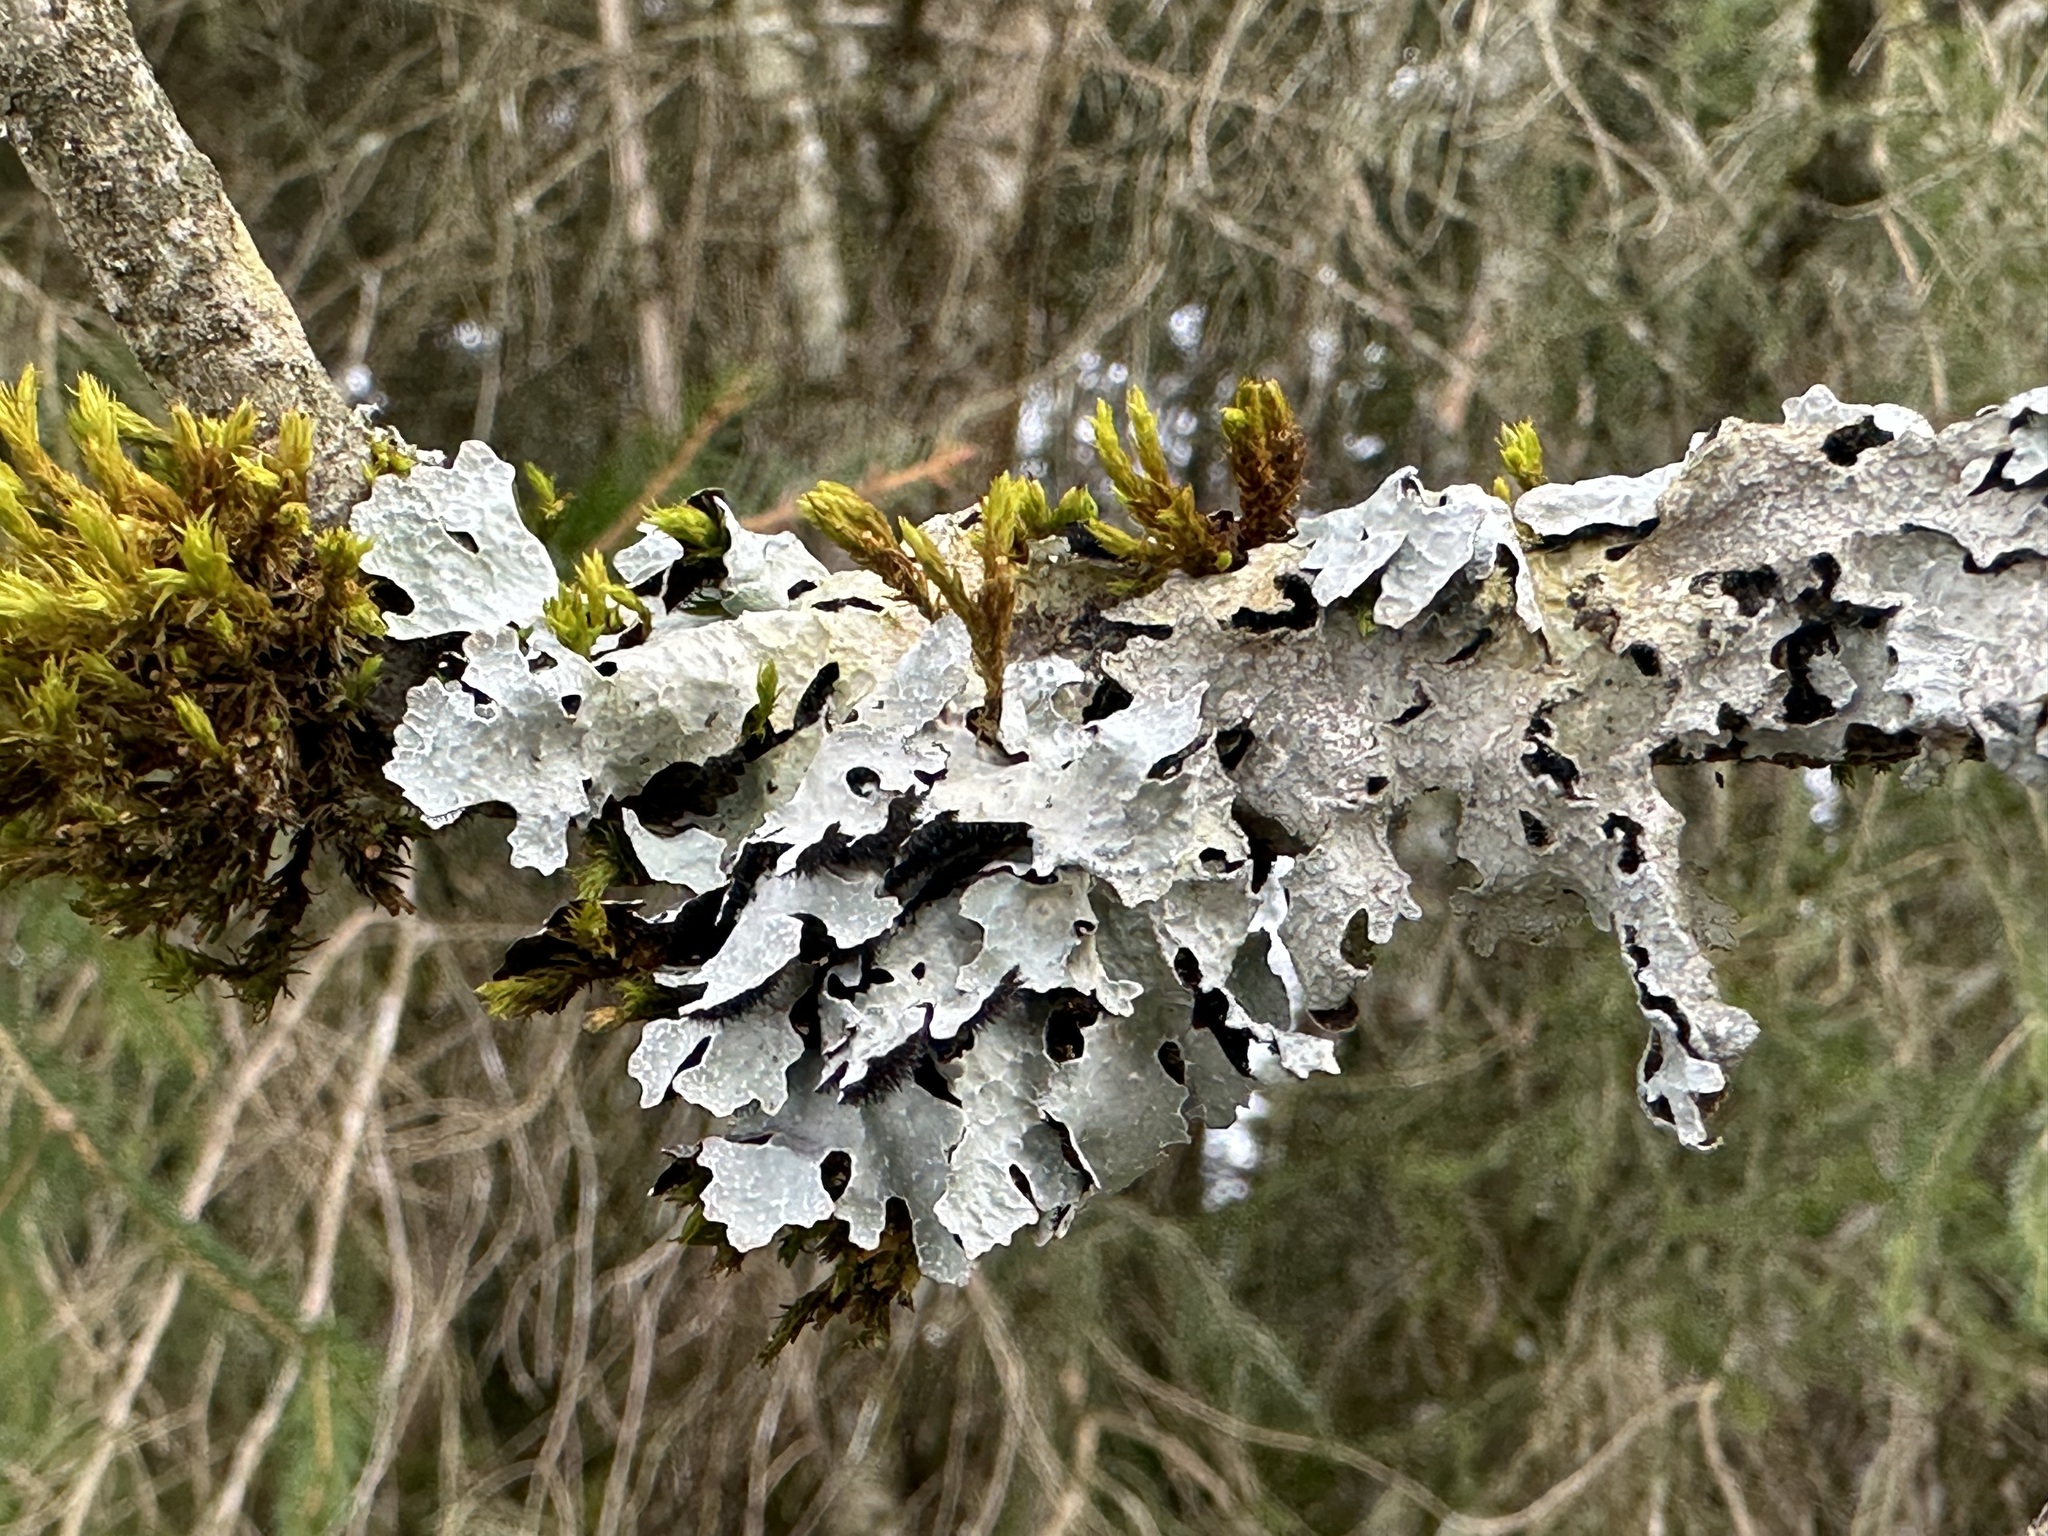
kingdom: Fungi
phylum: Ascomycota
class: Lecanoromycetes
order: Lecanorales
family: Parmeliaceae
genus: Parmelia
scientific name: Parmelia sulcata
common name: Netted shield lichen
